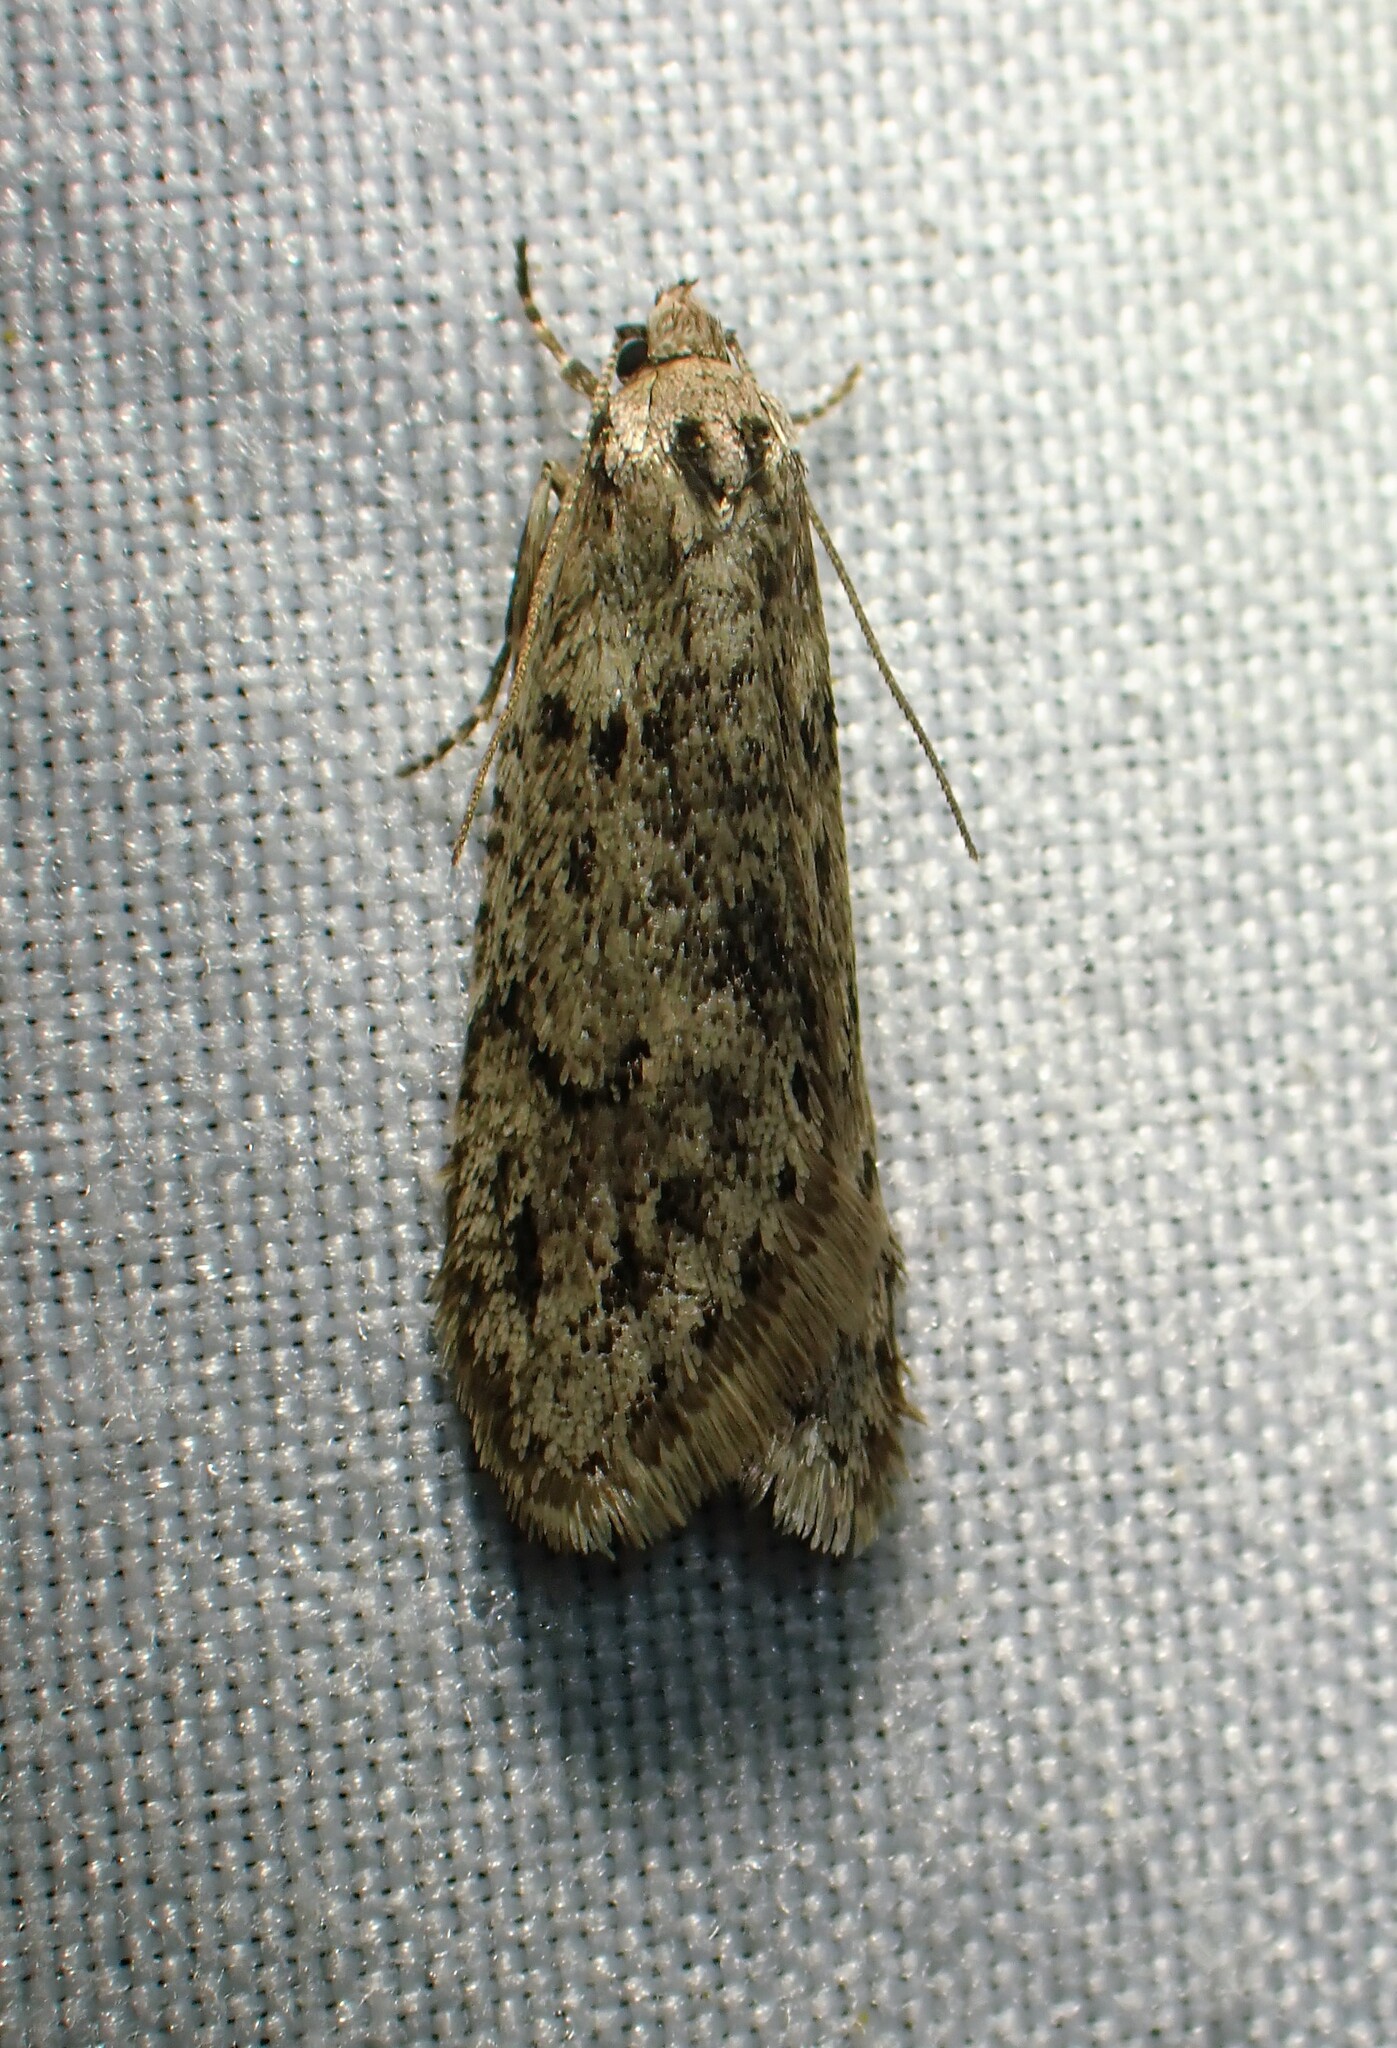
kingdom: Animalia
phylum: Arthropoda
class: Insecta
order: Lepidoptera
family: Depressariidae
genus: Semioscopis
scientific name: Semioscopis inornata
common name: Poplar micromoth
